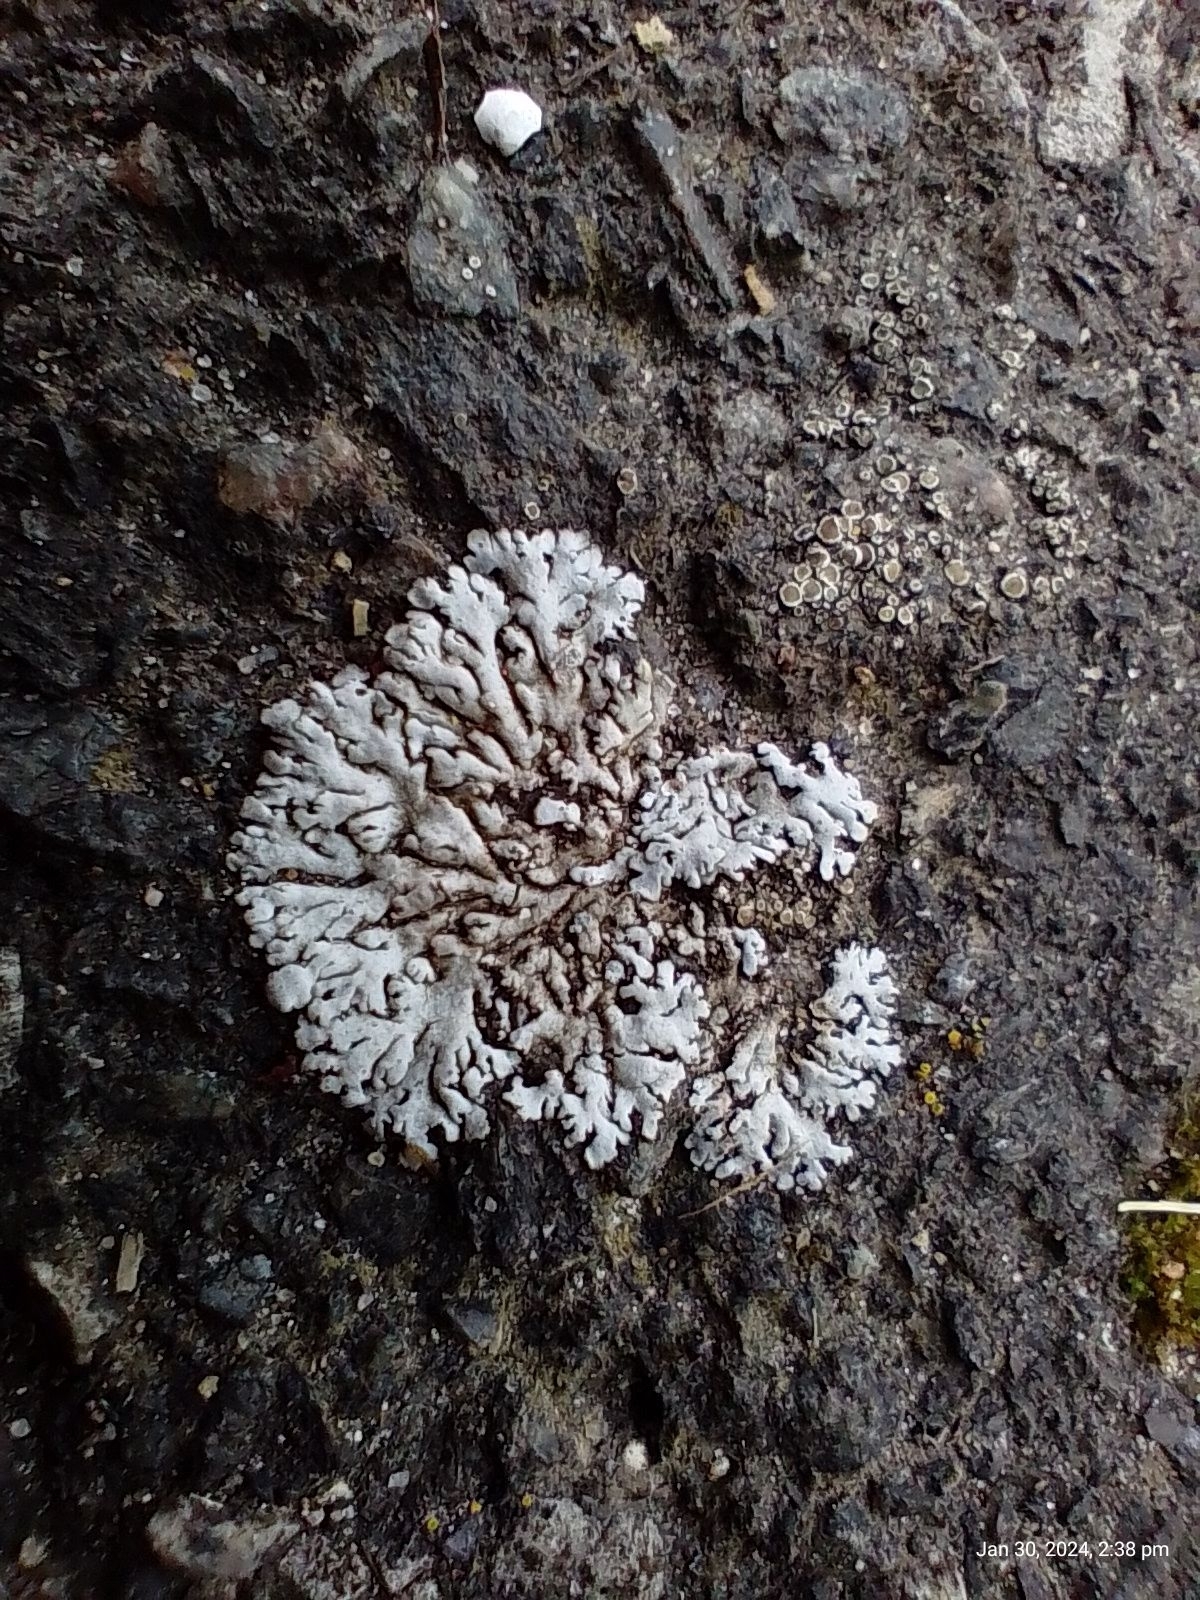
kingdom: Fungi
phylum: Ascomycota
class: Lecanoromycetes
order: Caliciales
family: Physciaceae
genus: Physcia
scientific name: Physcia caesia
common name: Blue-gray rosette lichen
